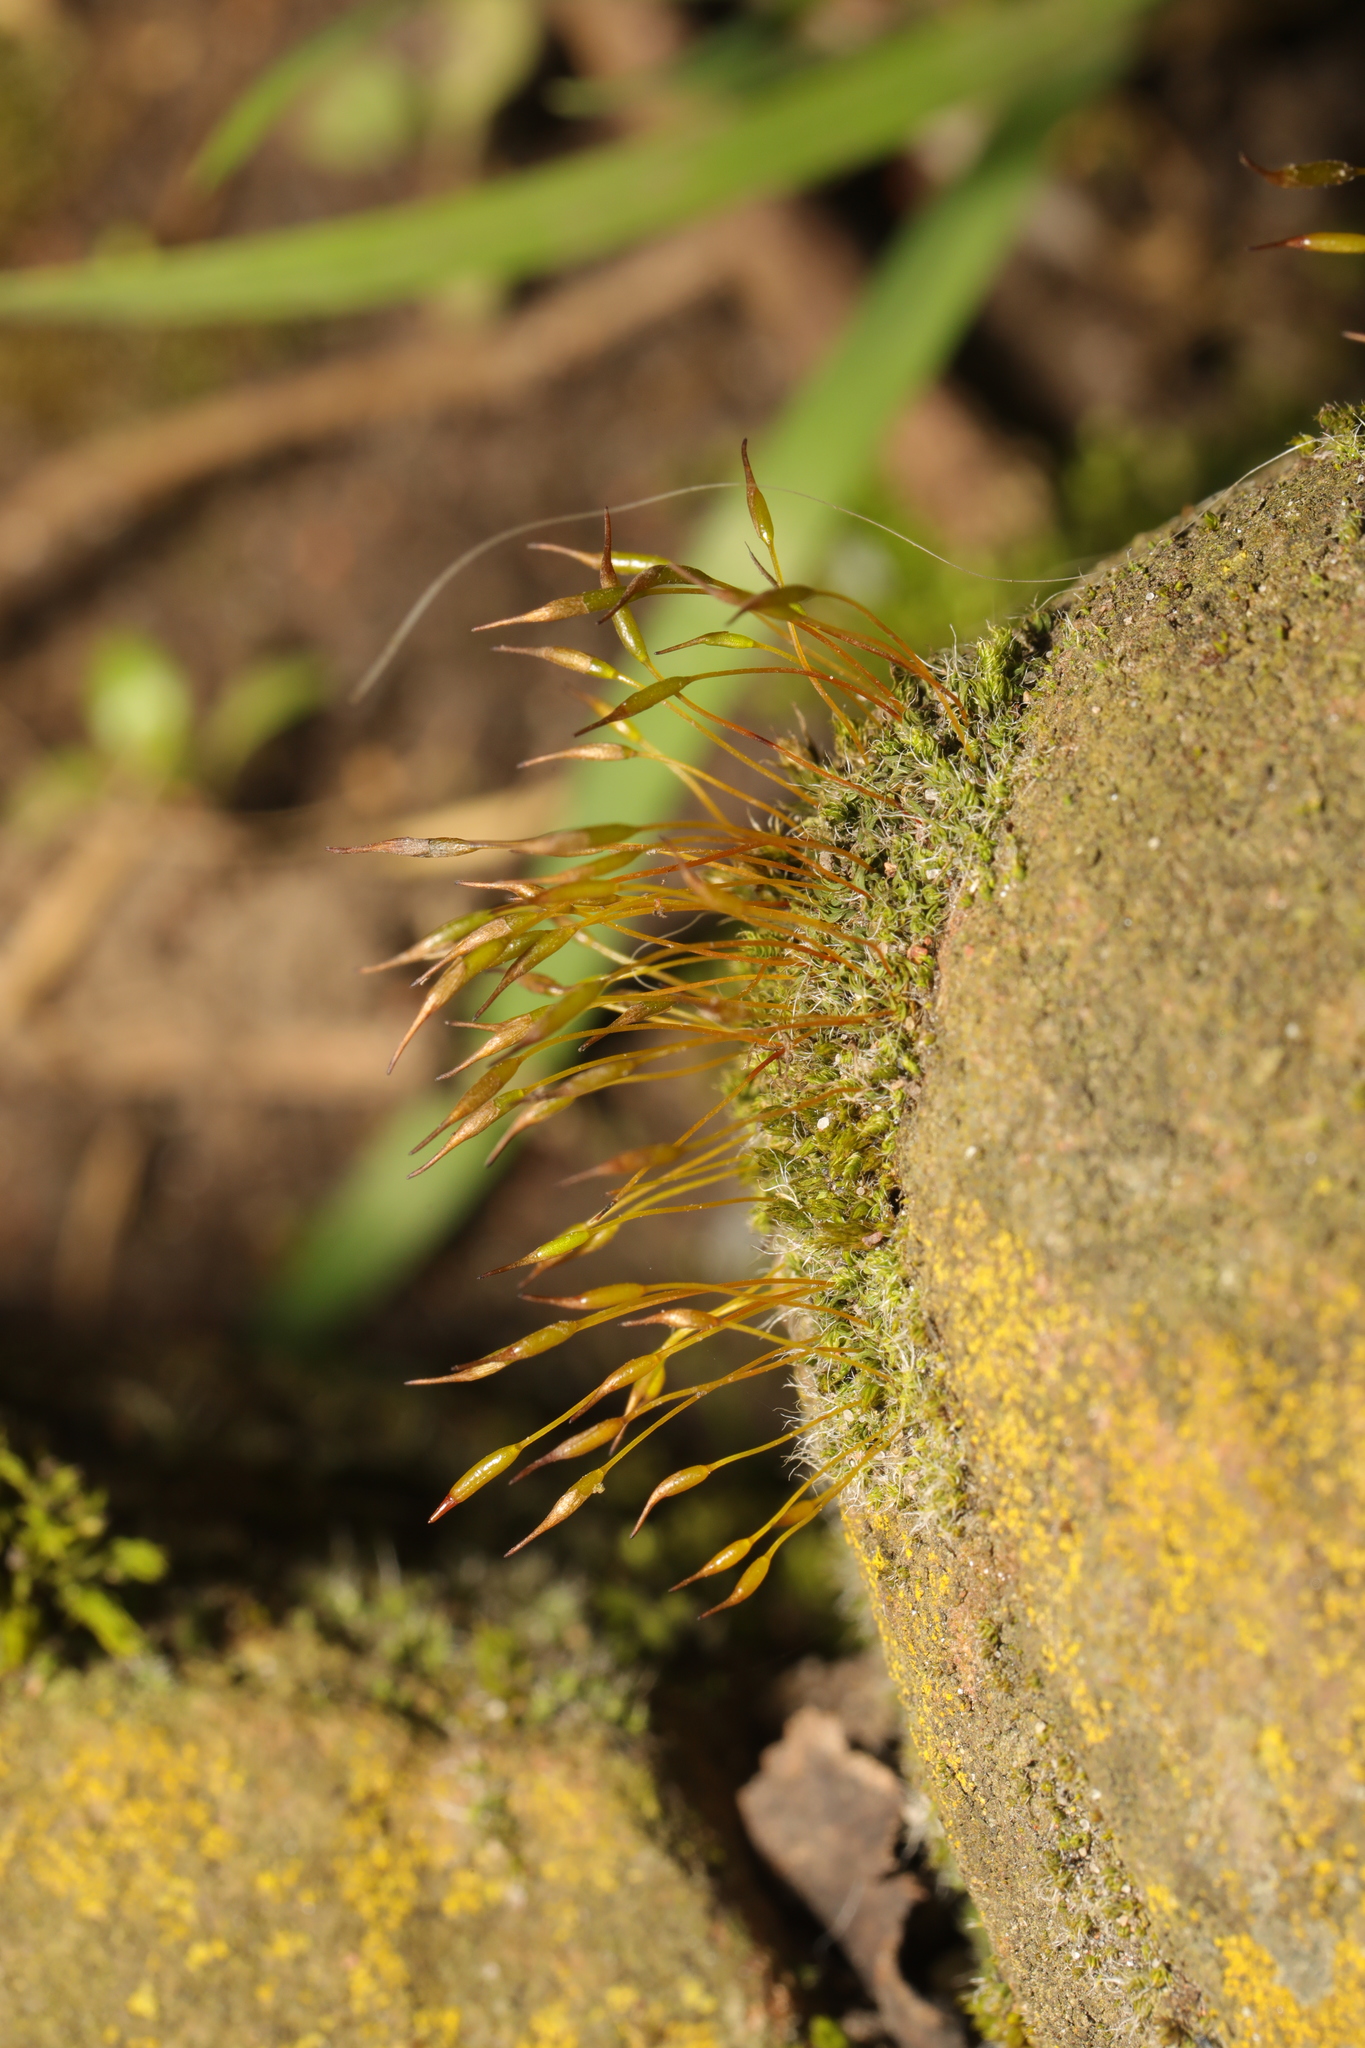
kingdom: Plantae
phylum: Bryophyta
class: Bryopsida
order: Pottiales
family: Pottiaceae
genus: Tortula
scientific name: Tortula muralis
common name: Wall screw-moss
